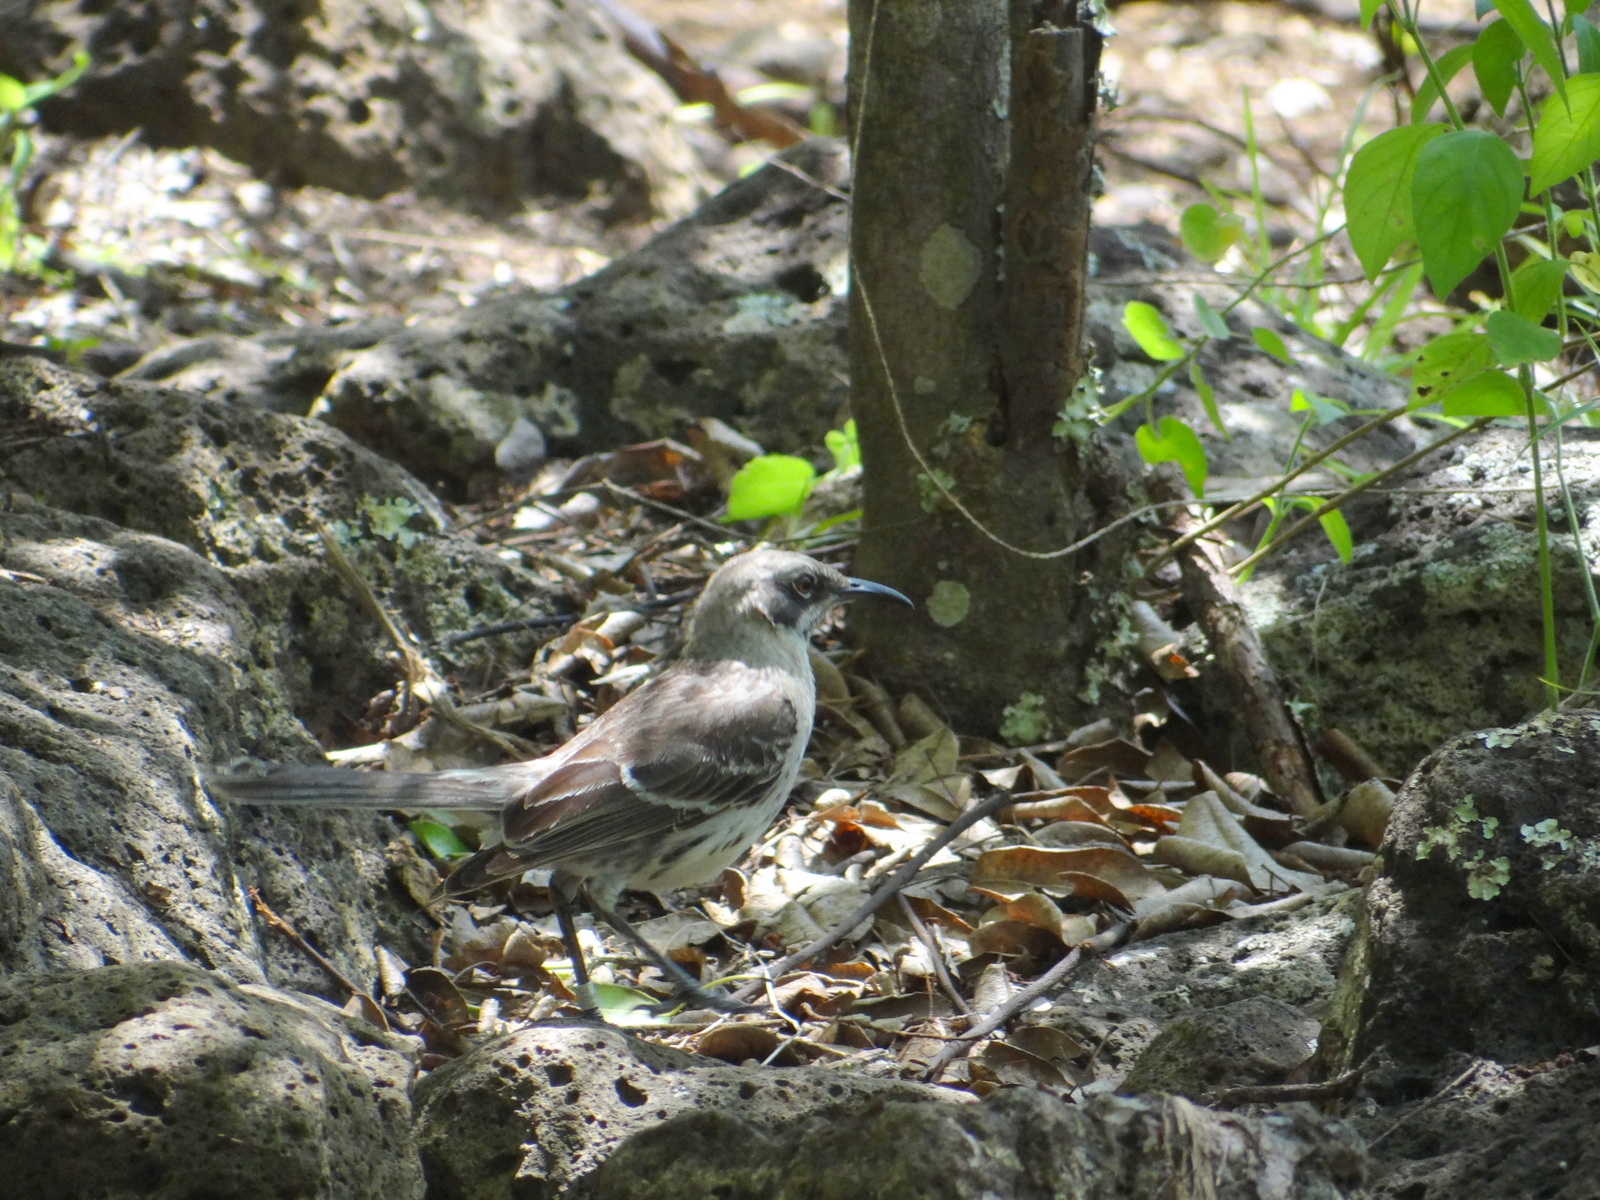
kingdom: Animalia
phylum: Chordata
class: Aves
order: Passeriformes
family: Mimidae
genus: Mimus
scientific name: Mimus melanotis
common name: San cristobal mockingbird
